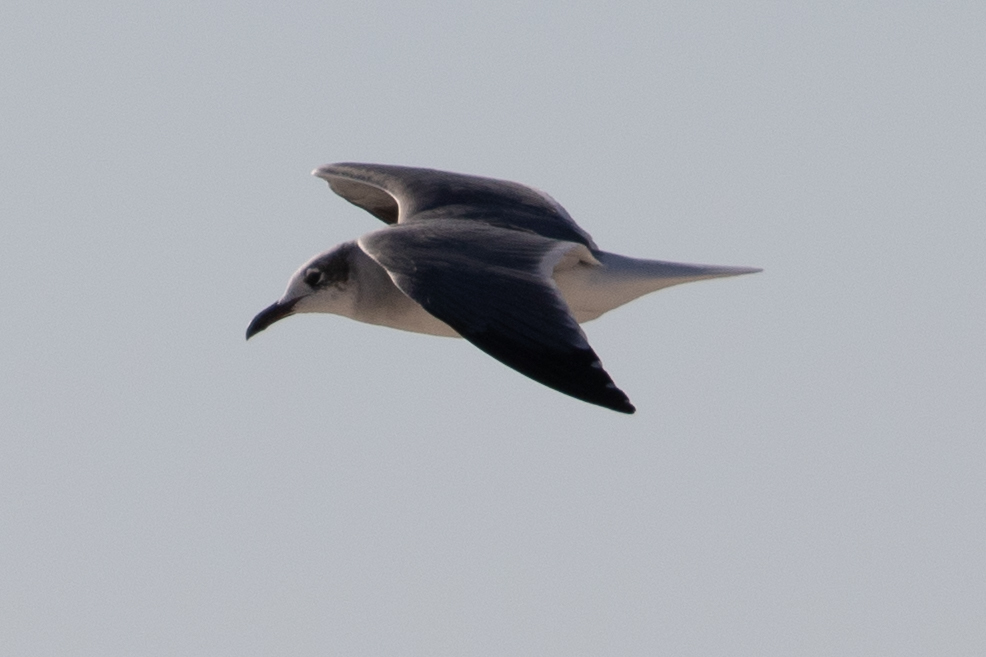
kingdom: Animalia
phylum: Chordata
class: Aves
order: Charadriiformes
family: Laridae
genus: Leucophaeus
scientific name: Leucophaeus atricilla
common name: Laughing gull
